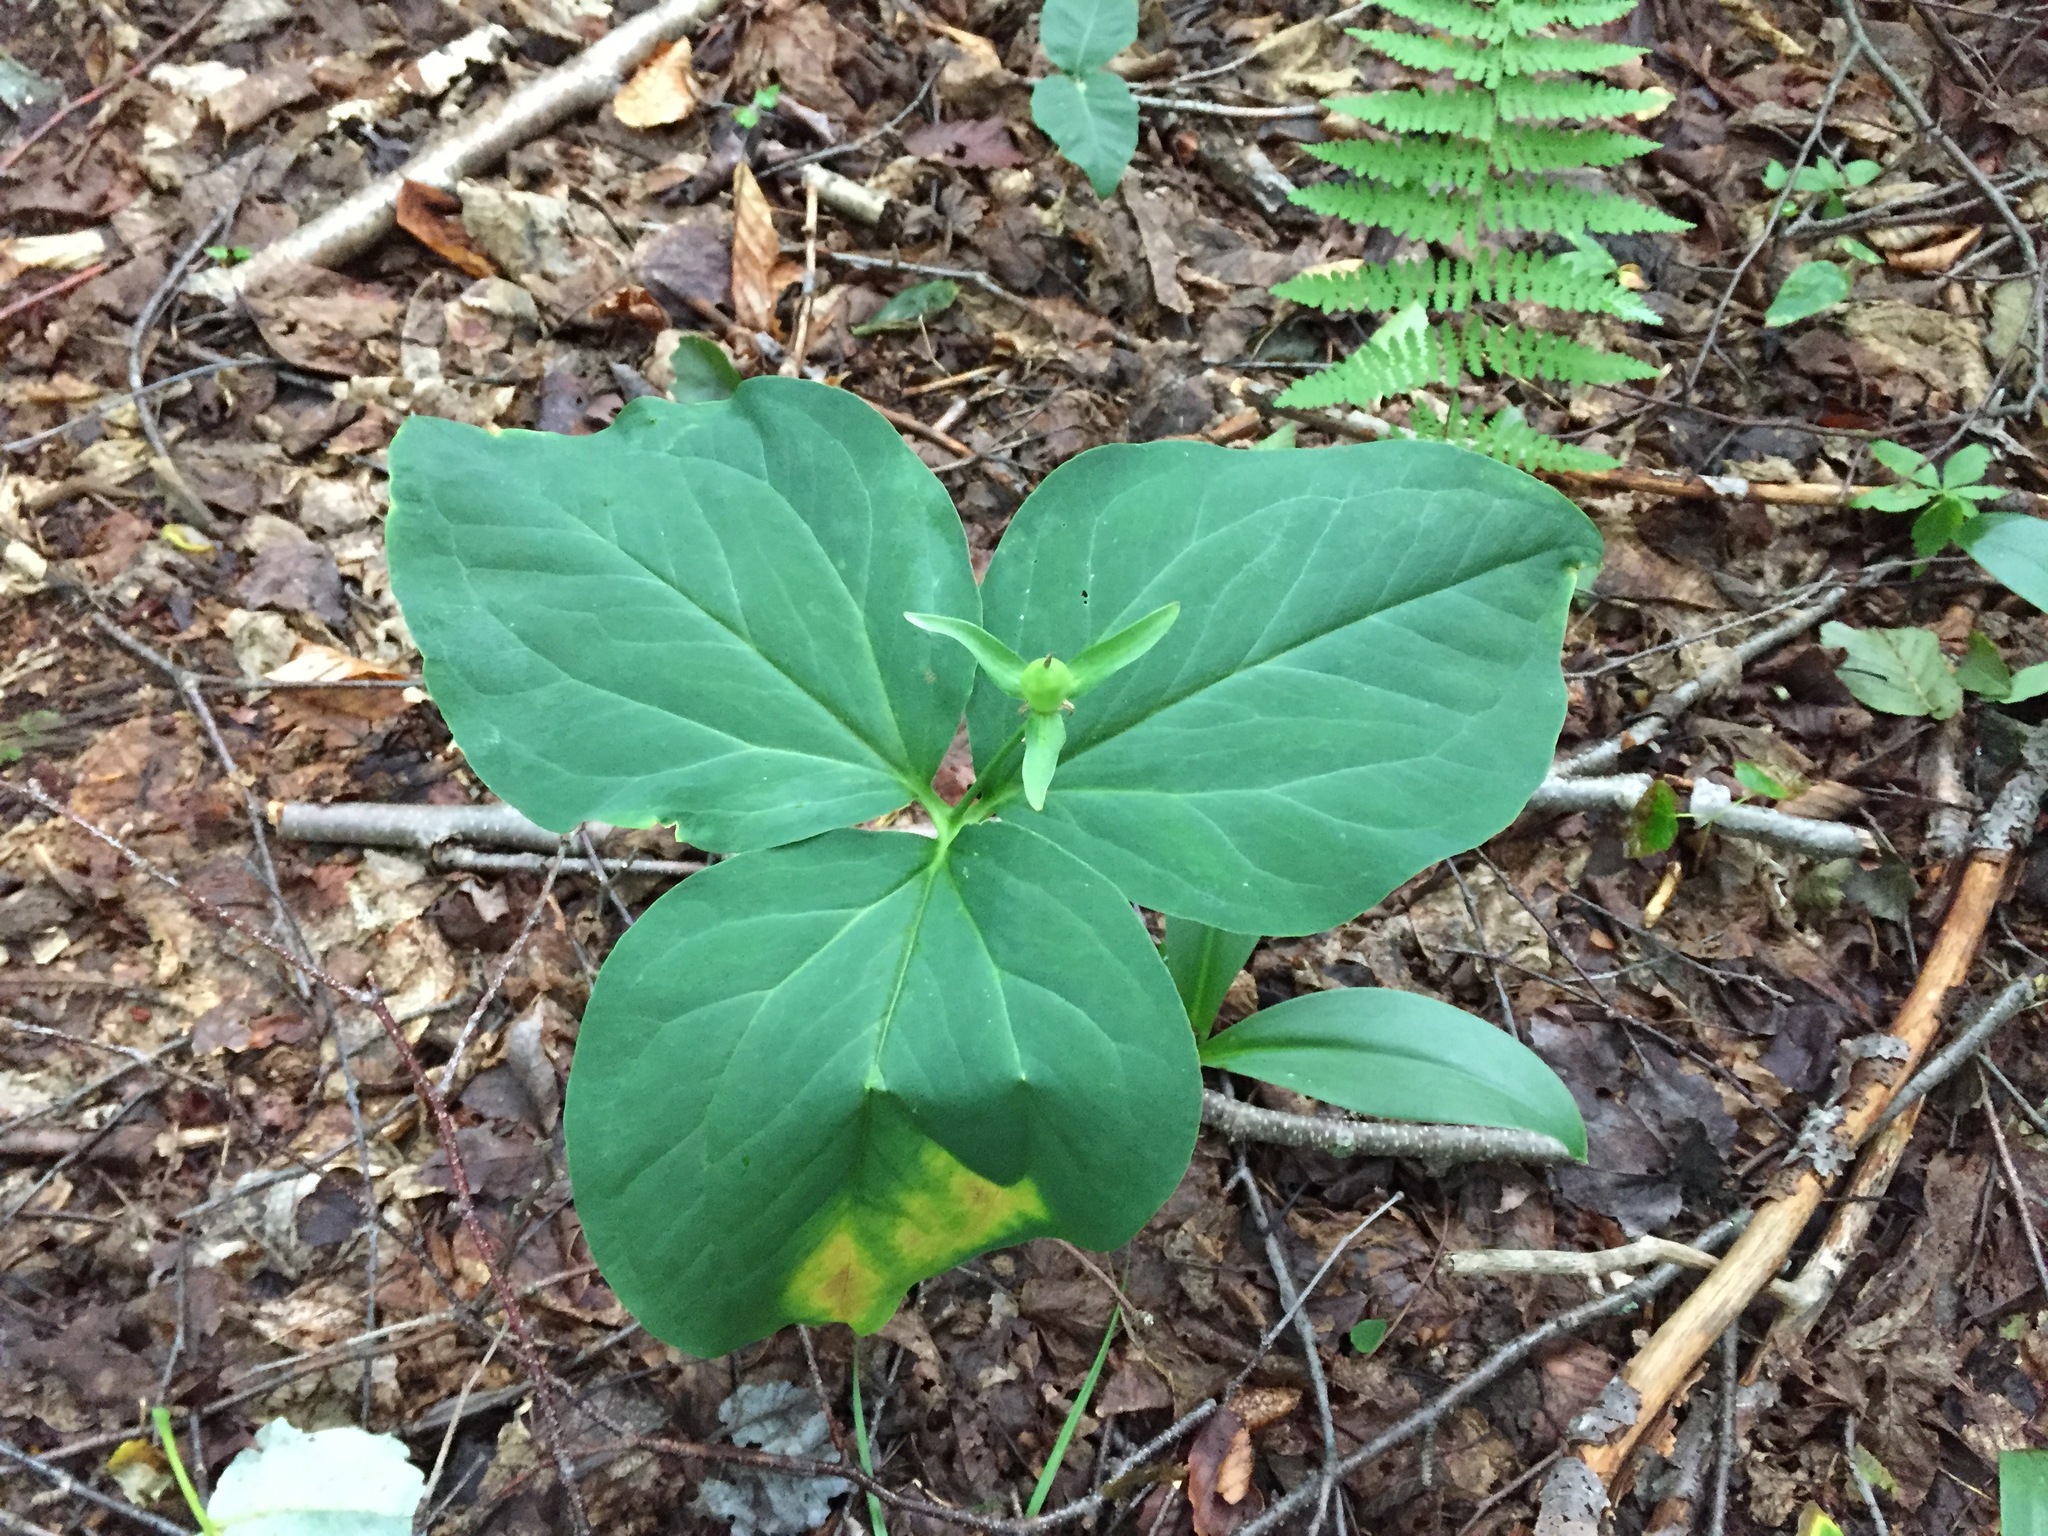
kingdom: Plantae
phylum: Tracheophyta
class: Liliopsida
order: Liliales
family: Melanthiaceae
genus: Trillium
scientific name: Trillium undulatum
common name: Paint trillium
